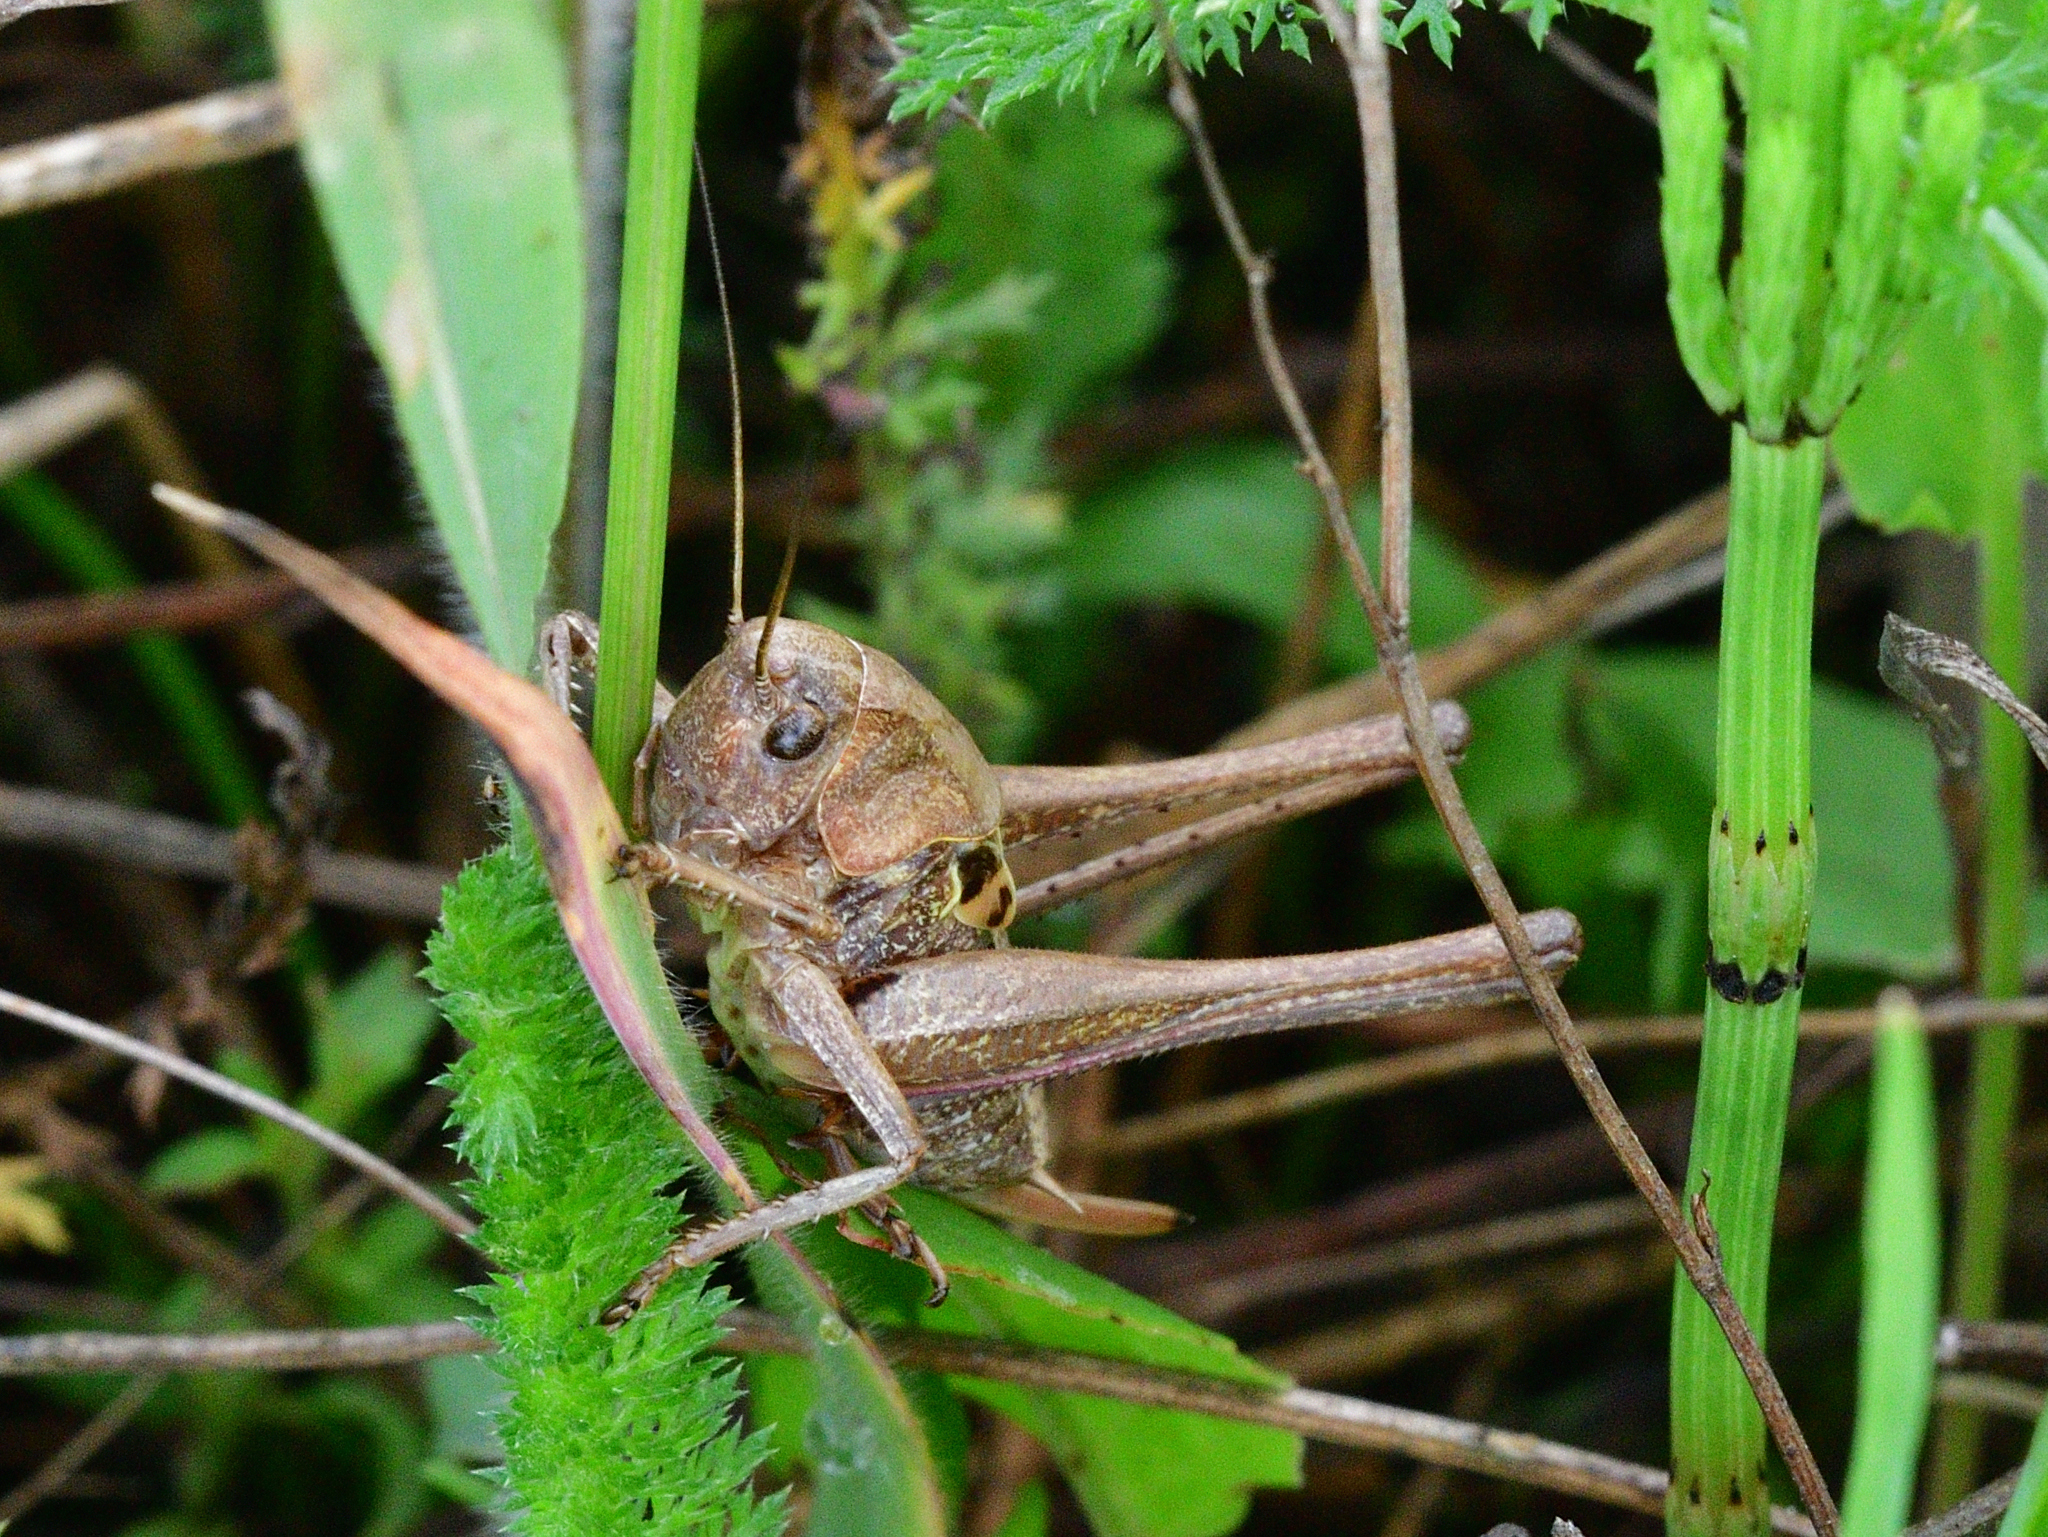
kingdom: Animalia
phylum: Arthropoda
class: Insecta
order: Orthoptera
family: Tettigoniidae
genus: Decticus
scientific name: Decticus verrucivorus
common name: Wart-biter
